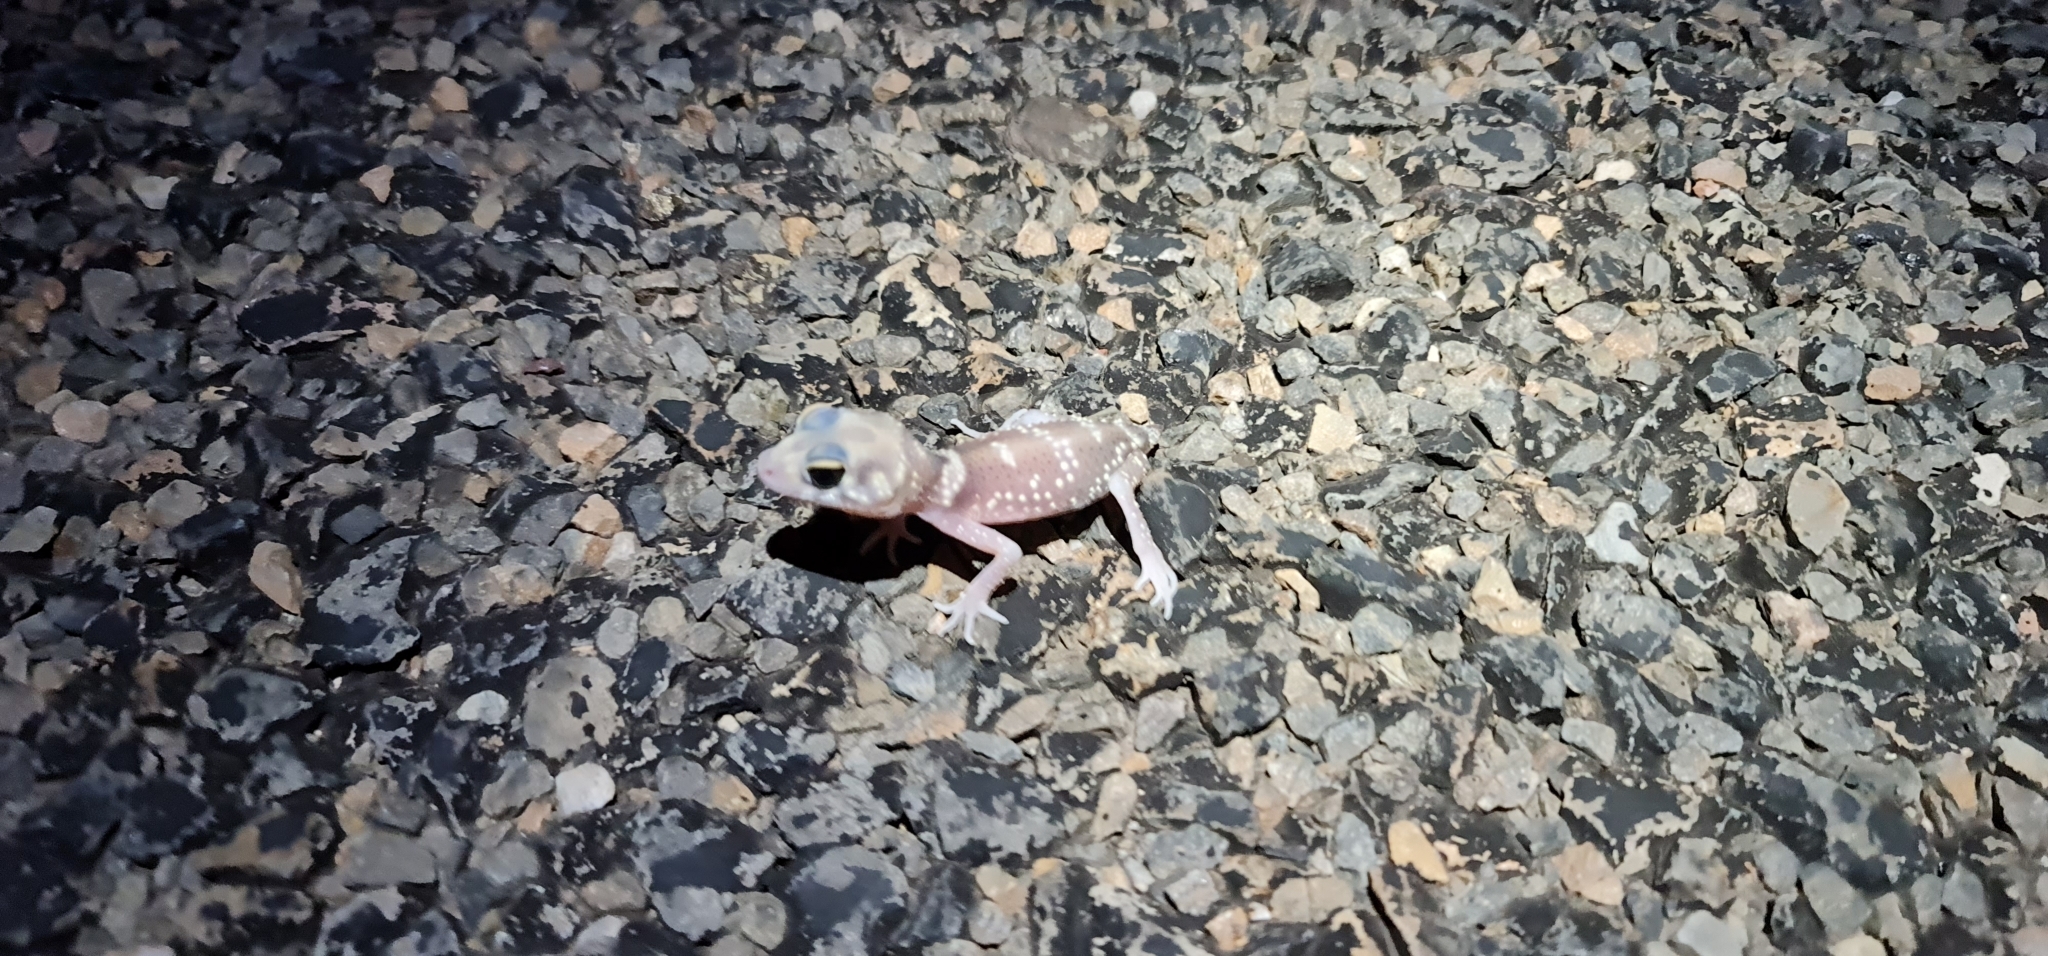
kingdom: Animalia
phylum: Chordata
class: Squamata
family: Carphodactylidae
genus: Underwoodisaurus
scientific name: Underwoodisaurus milii
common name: Barking gecko
